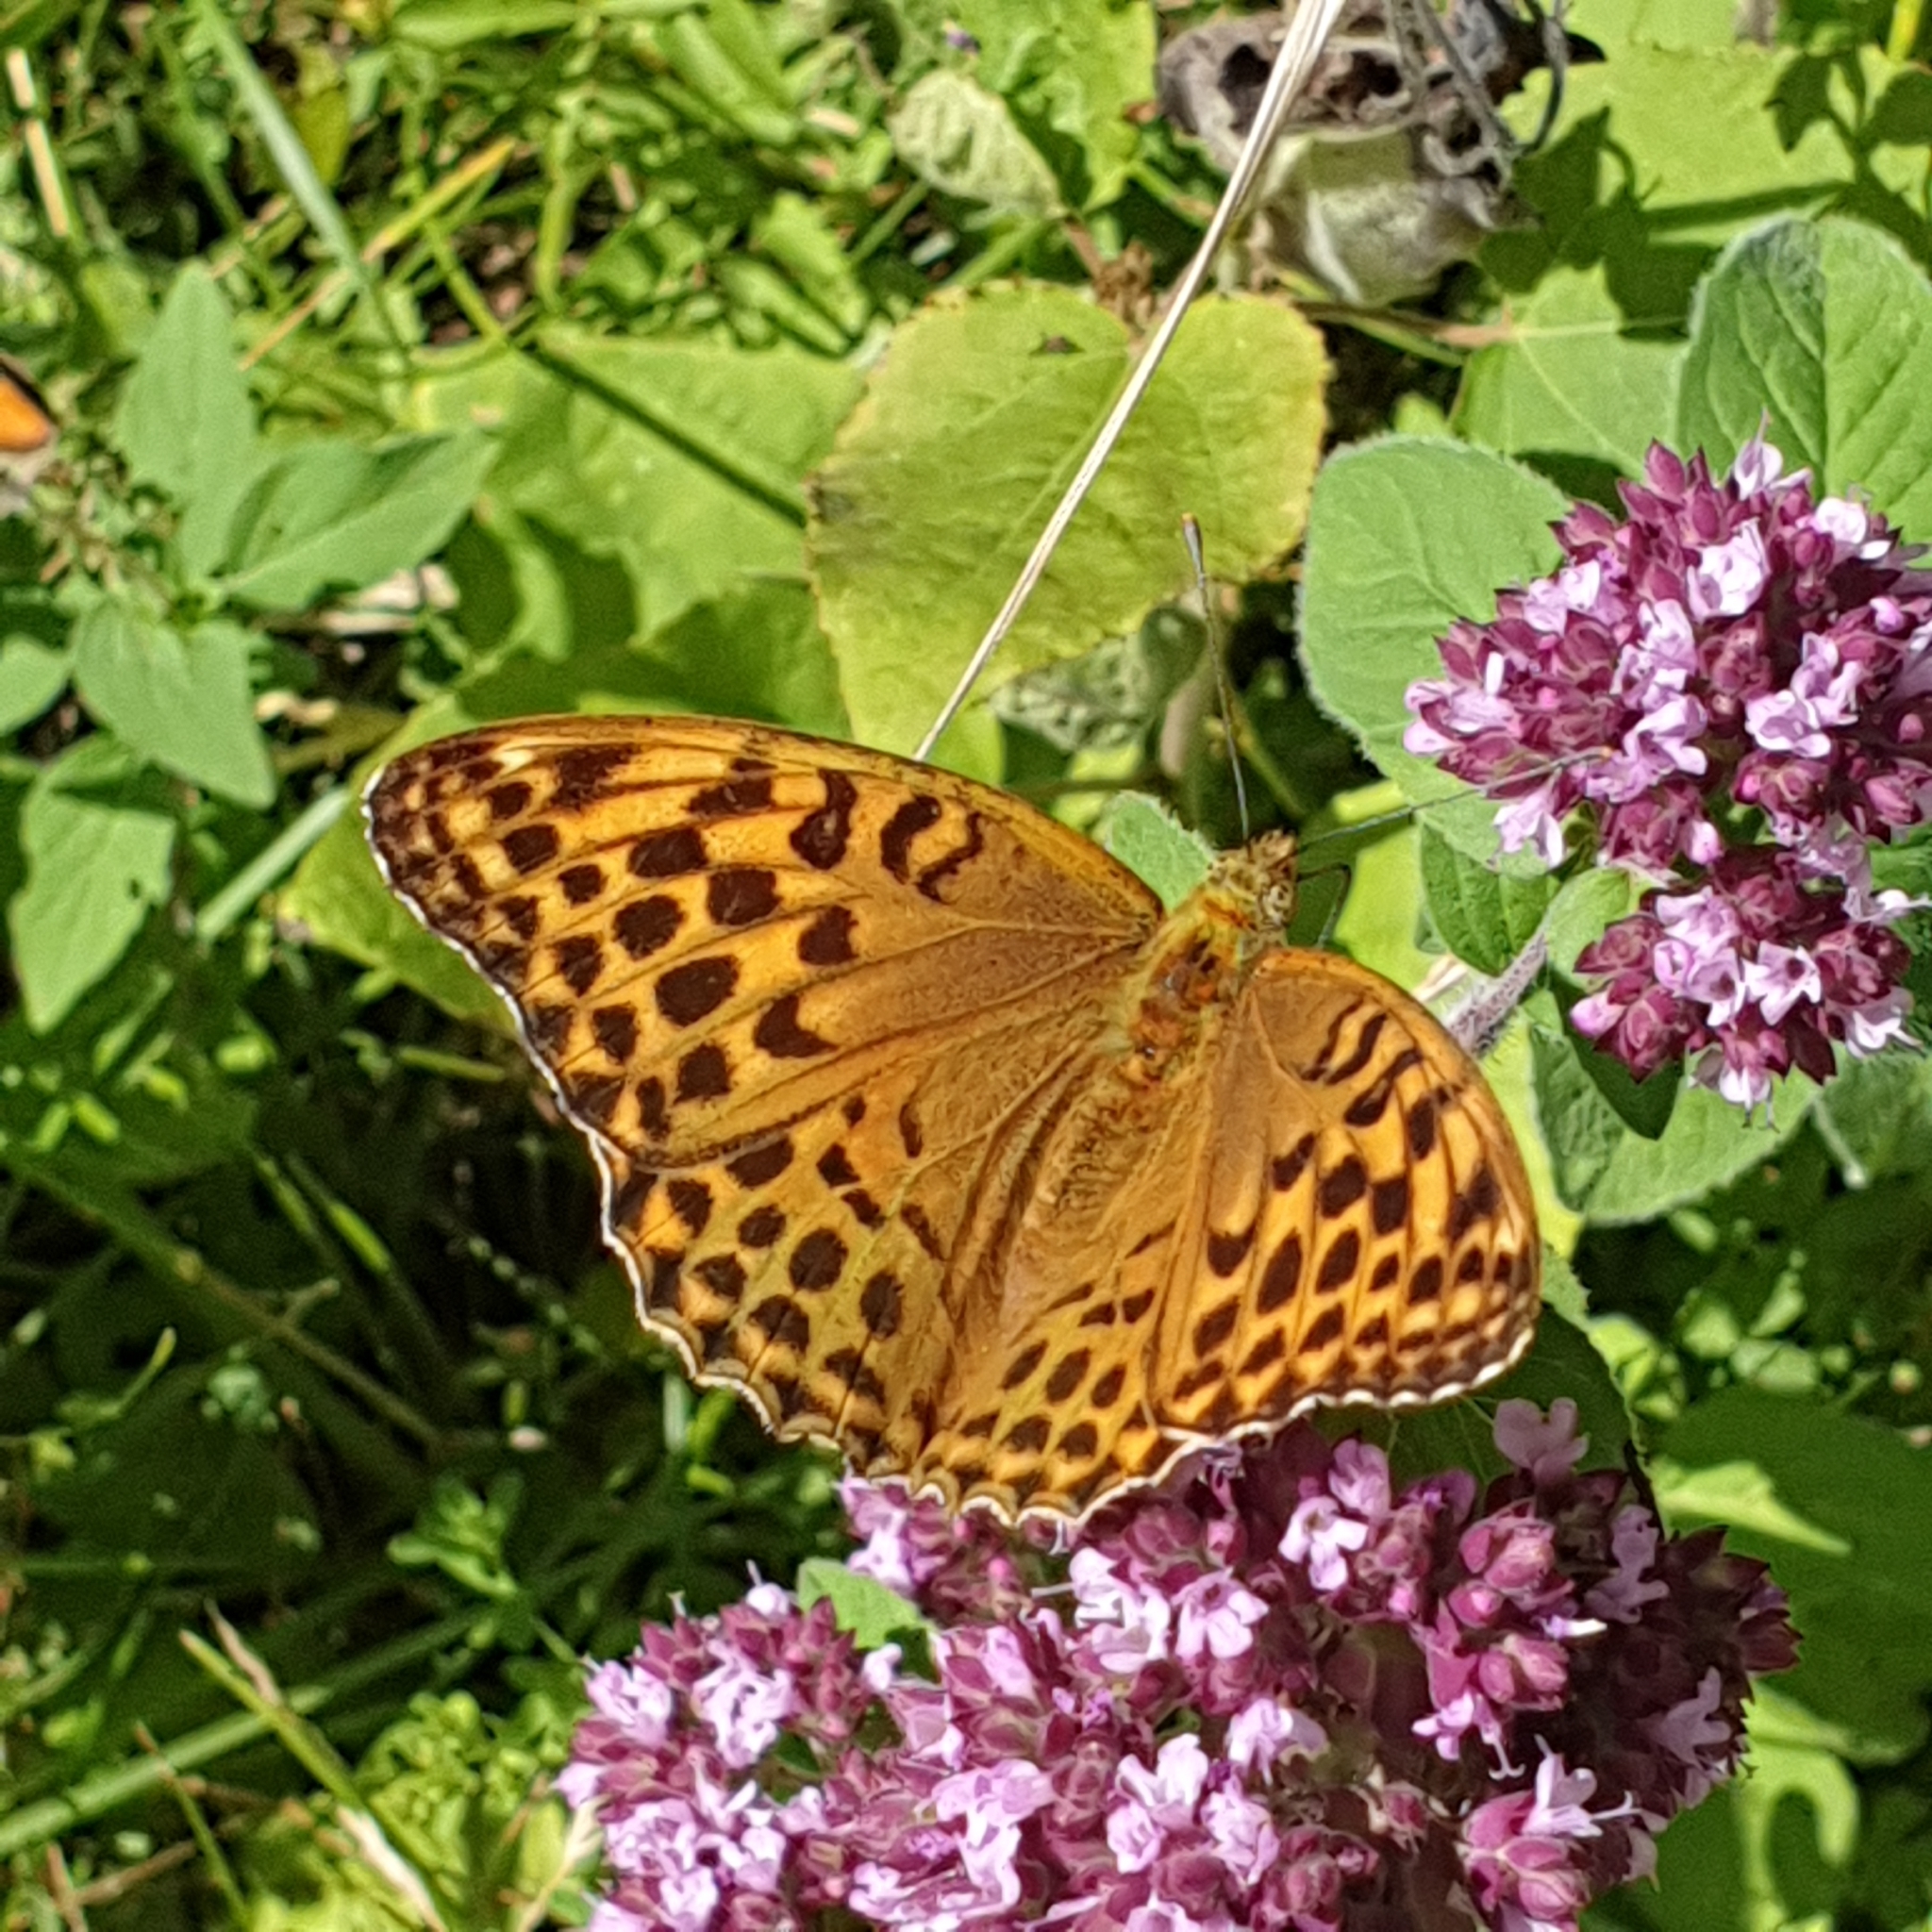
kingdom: Animalia
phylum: Arthropoda
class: Insecta
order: Lepidoptera
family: Nymphalidae
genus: Argynnis
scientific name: Argynnis paphia
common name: Silver-washed fritillary
